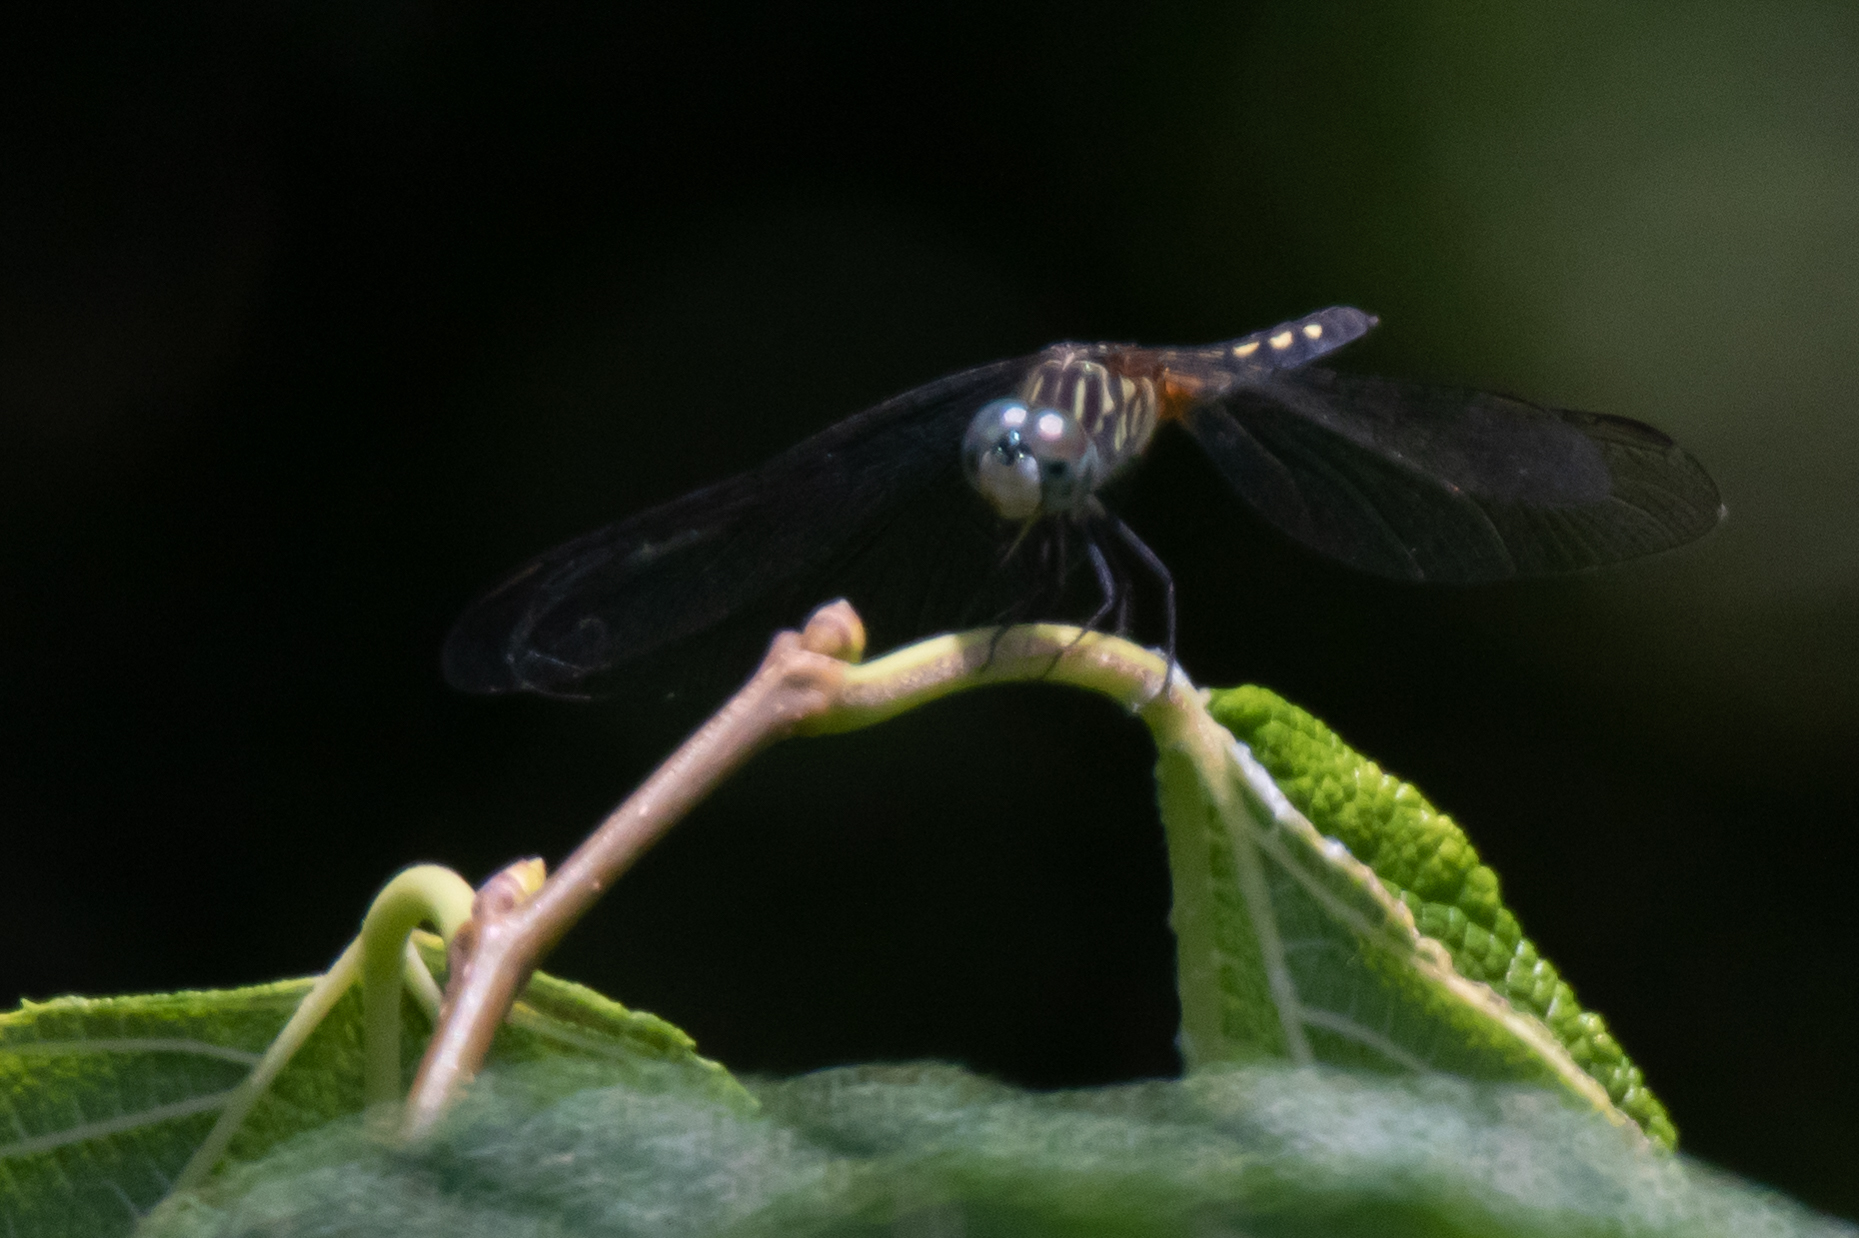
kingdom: Animalia
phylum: Arthropoda
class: Insecta
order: Odonata
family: Libellulidae
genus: Pachydiplax
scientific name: Pachydiplax longipennis
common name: Blue dasher
